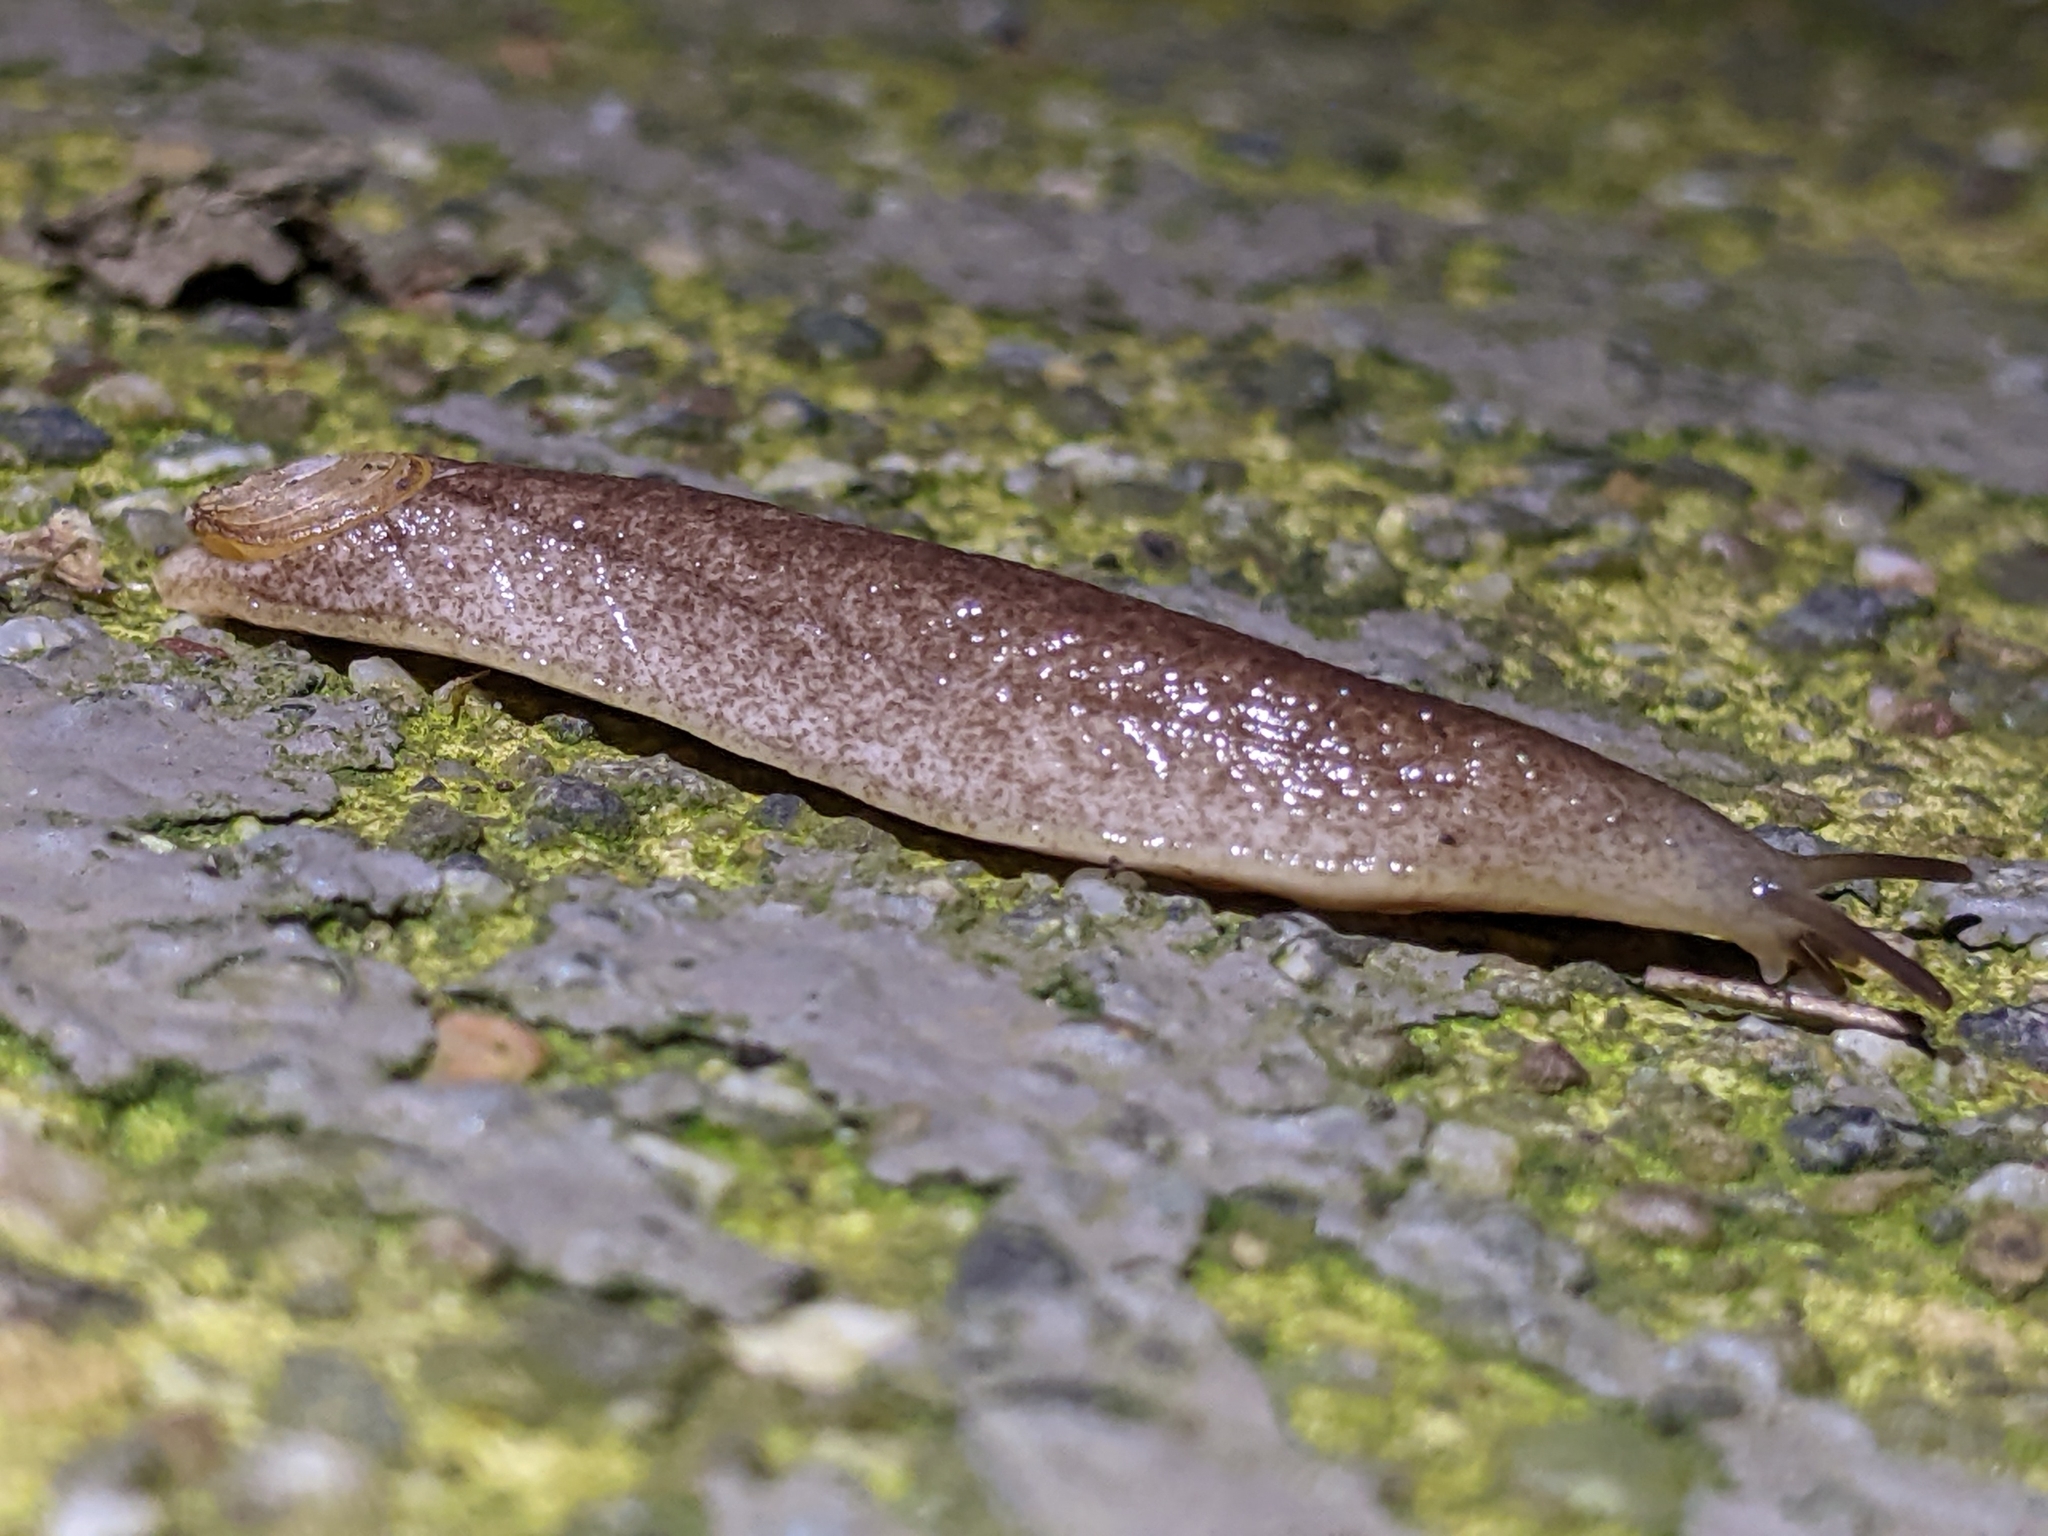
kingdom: Animalia
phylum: Mollusca
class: Gastropoda
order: Stylommatophora
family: Testacellidae
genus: Testacella
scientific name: Testacella haliotidea
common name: Shelled slug
